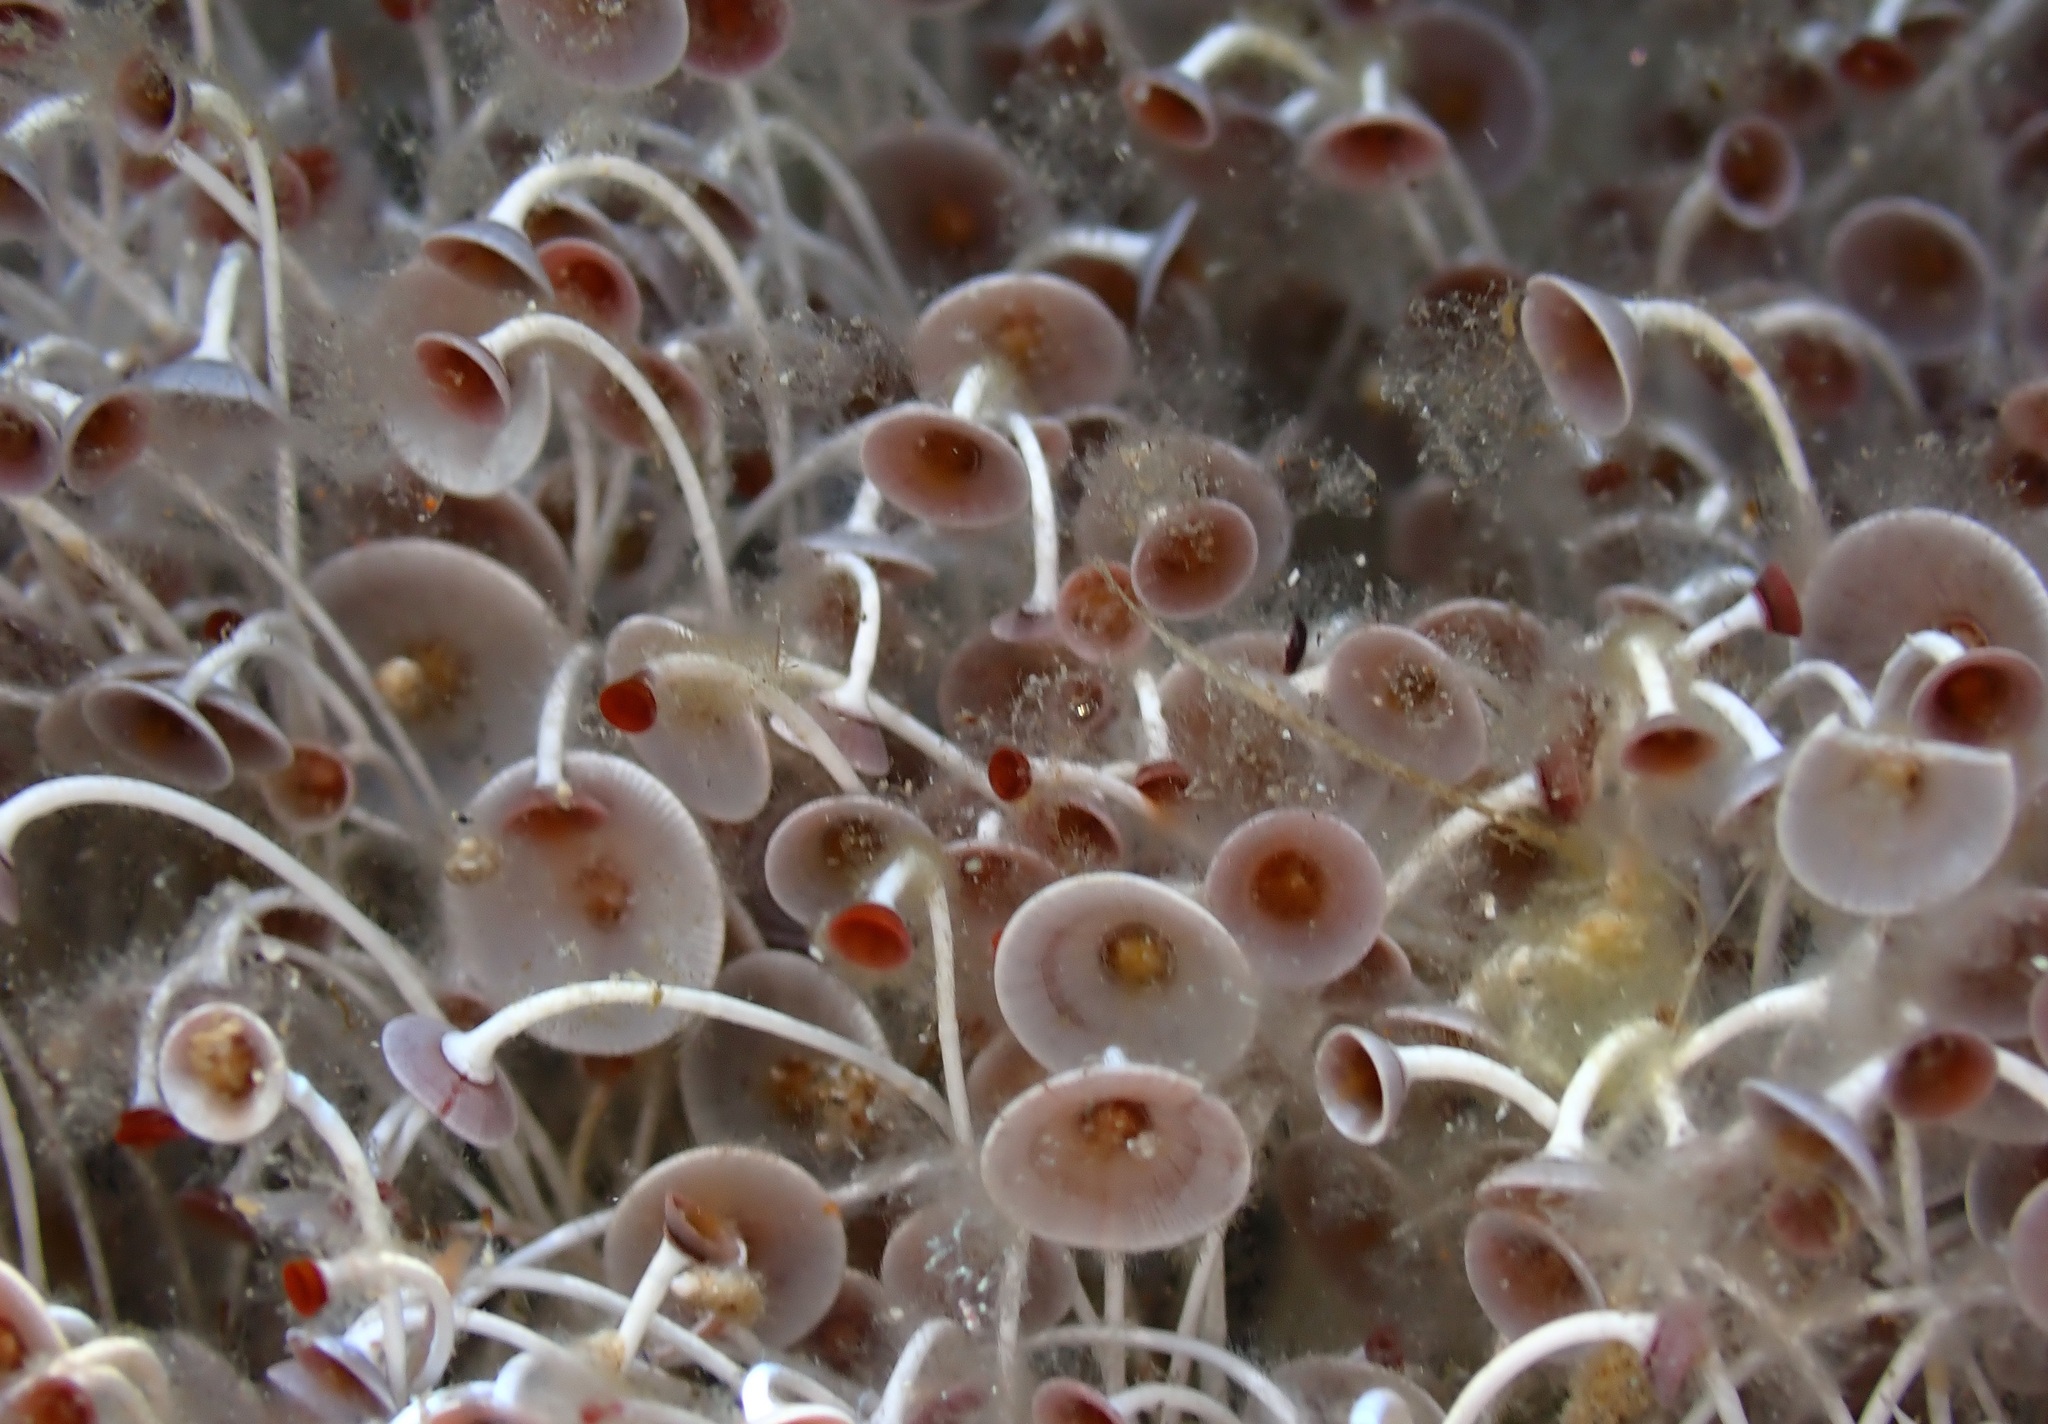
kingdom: Plantae
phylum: Chlorophyta
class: Ulvophyceae
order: Dasycladales
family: Polyphysaceae
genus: Acetabularia
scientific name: Acetabularia acetabulum
